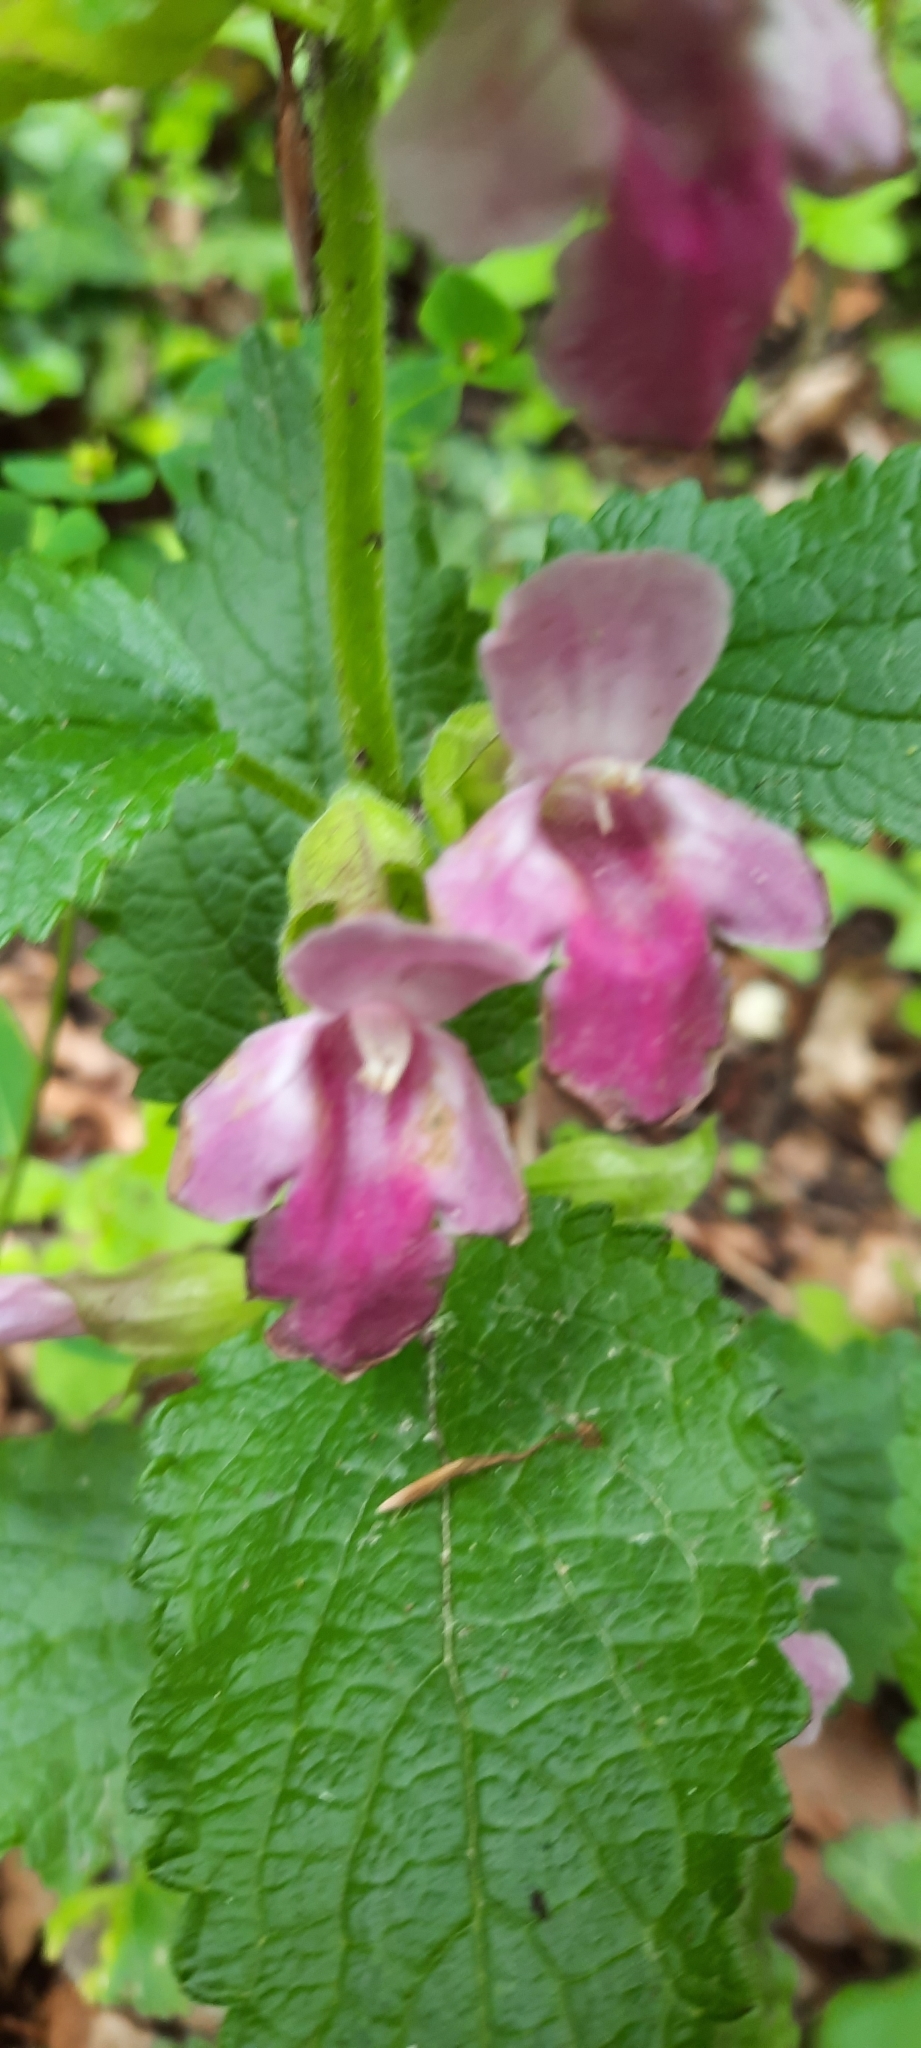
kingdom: Plantae
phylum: Tracheophyta
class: Magnoliopsida
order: Lamiales
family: Lamiaceae
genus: Melittis
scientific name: Melittis melissophyllum
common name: Bastard balm
